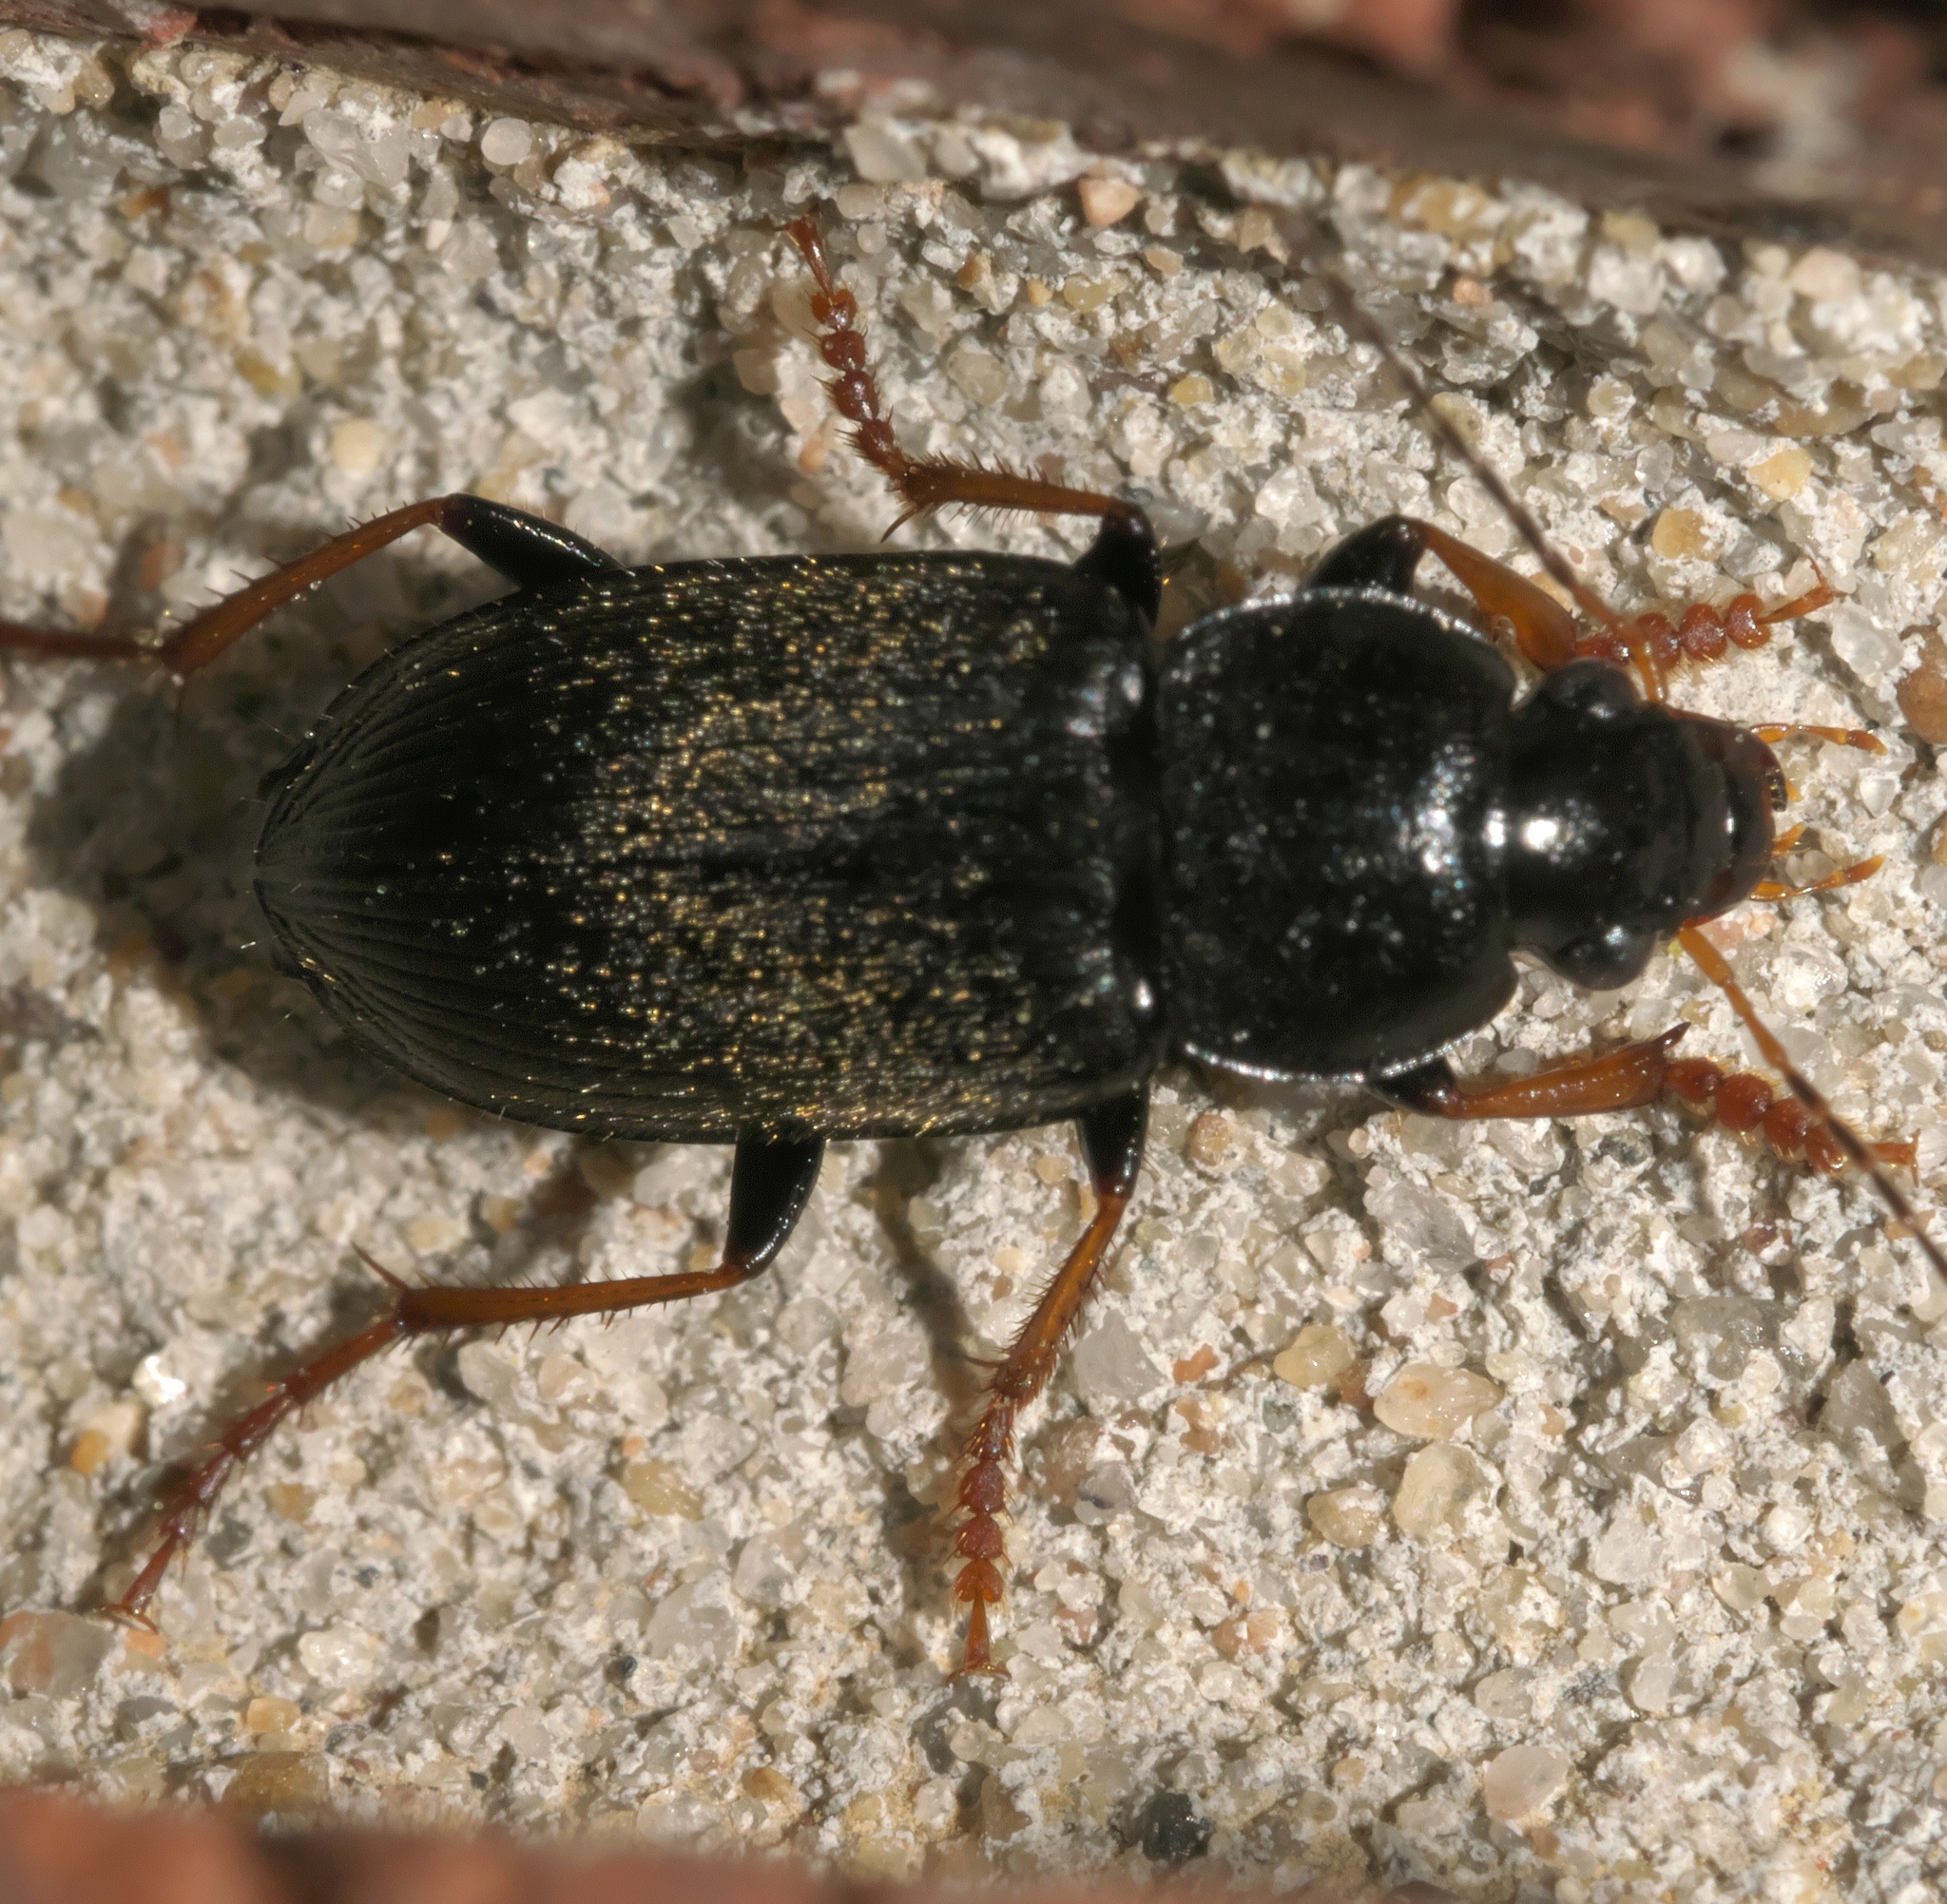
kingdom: Animalia
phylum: Arthropoda
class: Insecta
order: Coleoptera
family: Carabidae
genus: Amphasia
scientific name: Amphasia sericea
